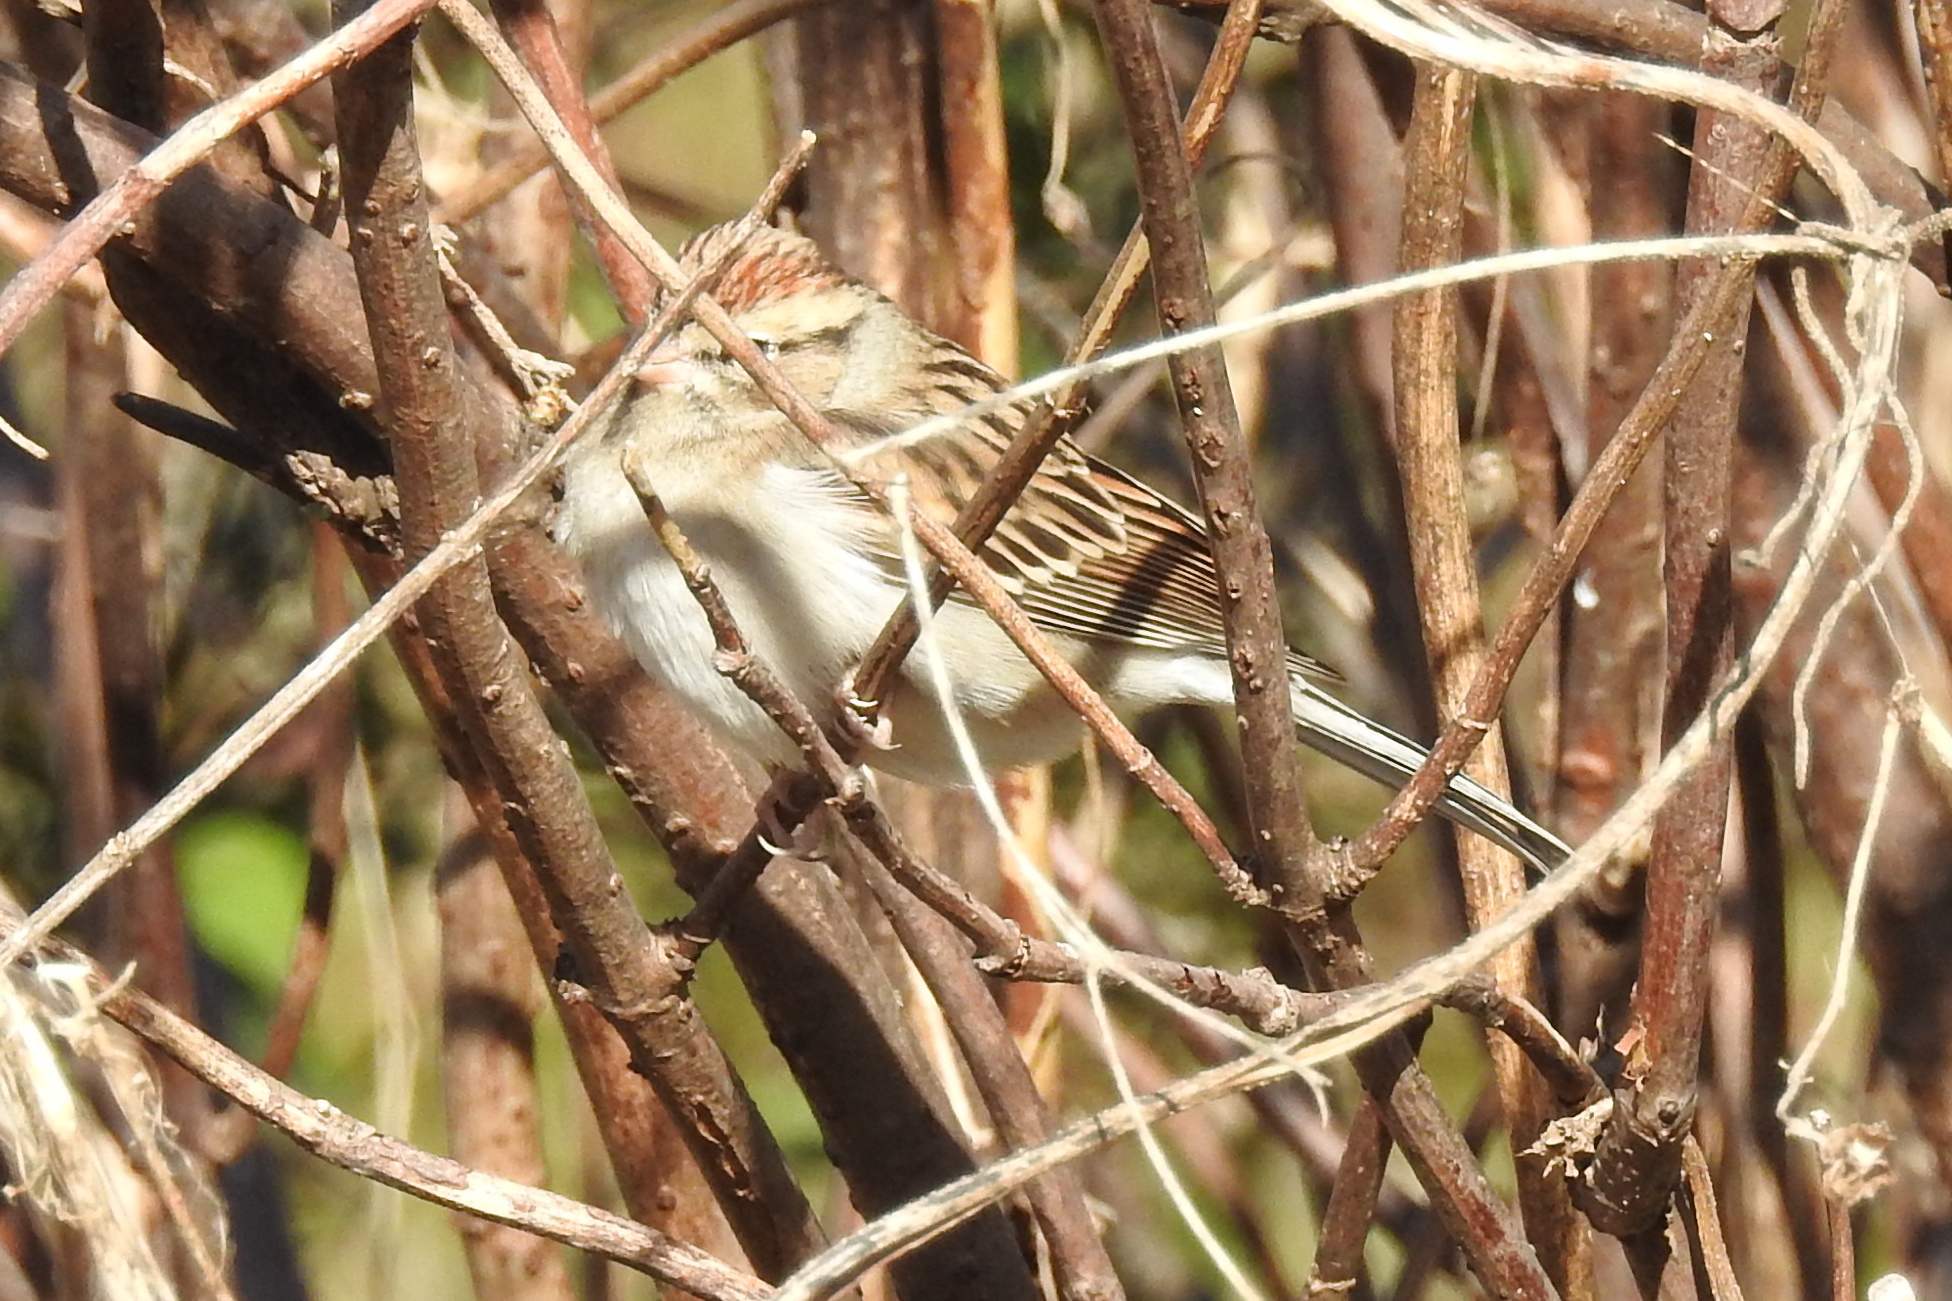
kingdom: Animalia
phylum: Chordata
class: Aves
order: Passeriformes
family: Passerellidae
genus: Spizella
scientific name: Spizella passerina
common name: Chipping sparrow
